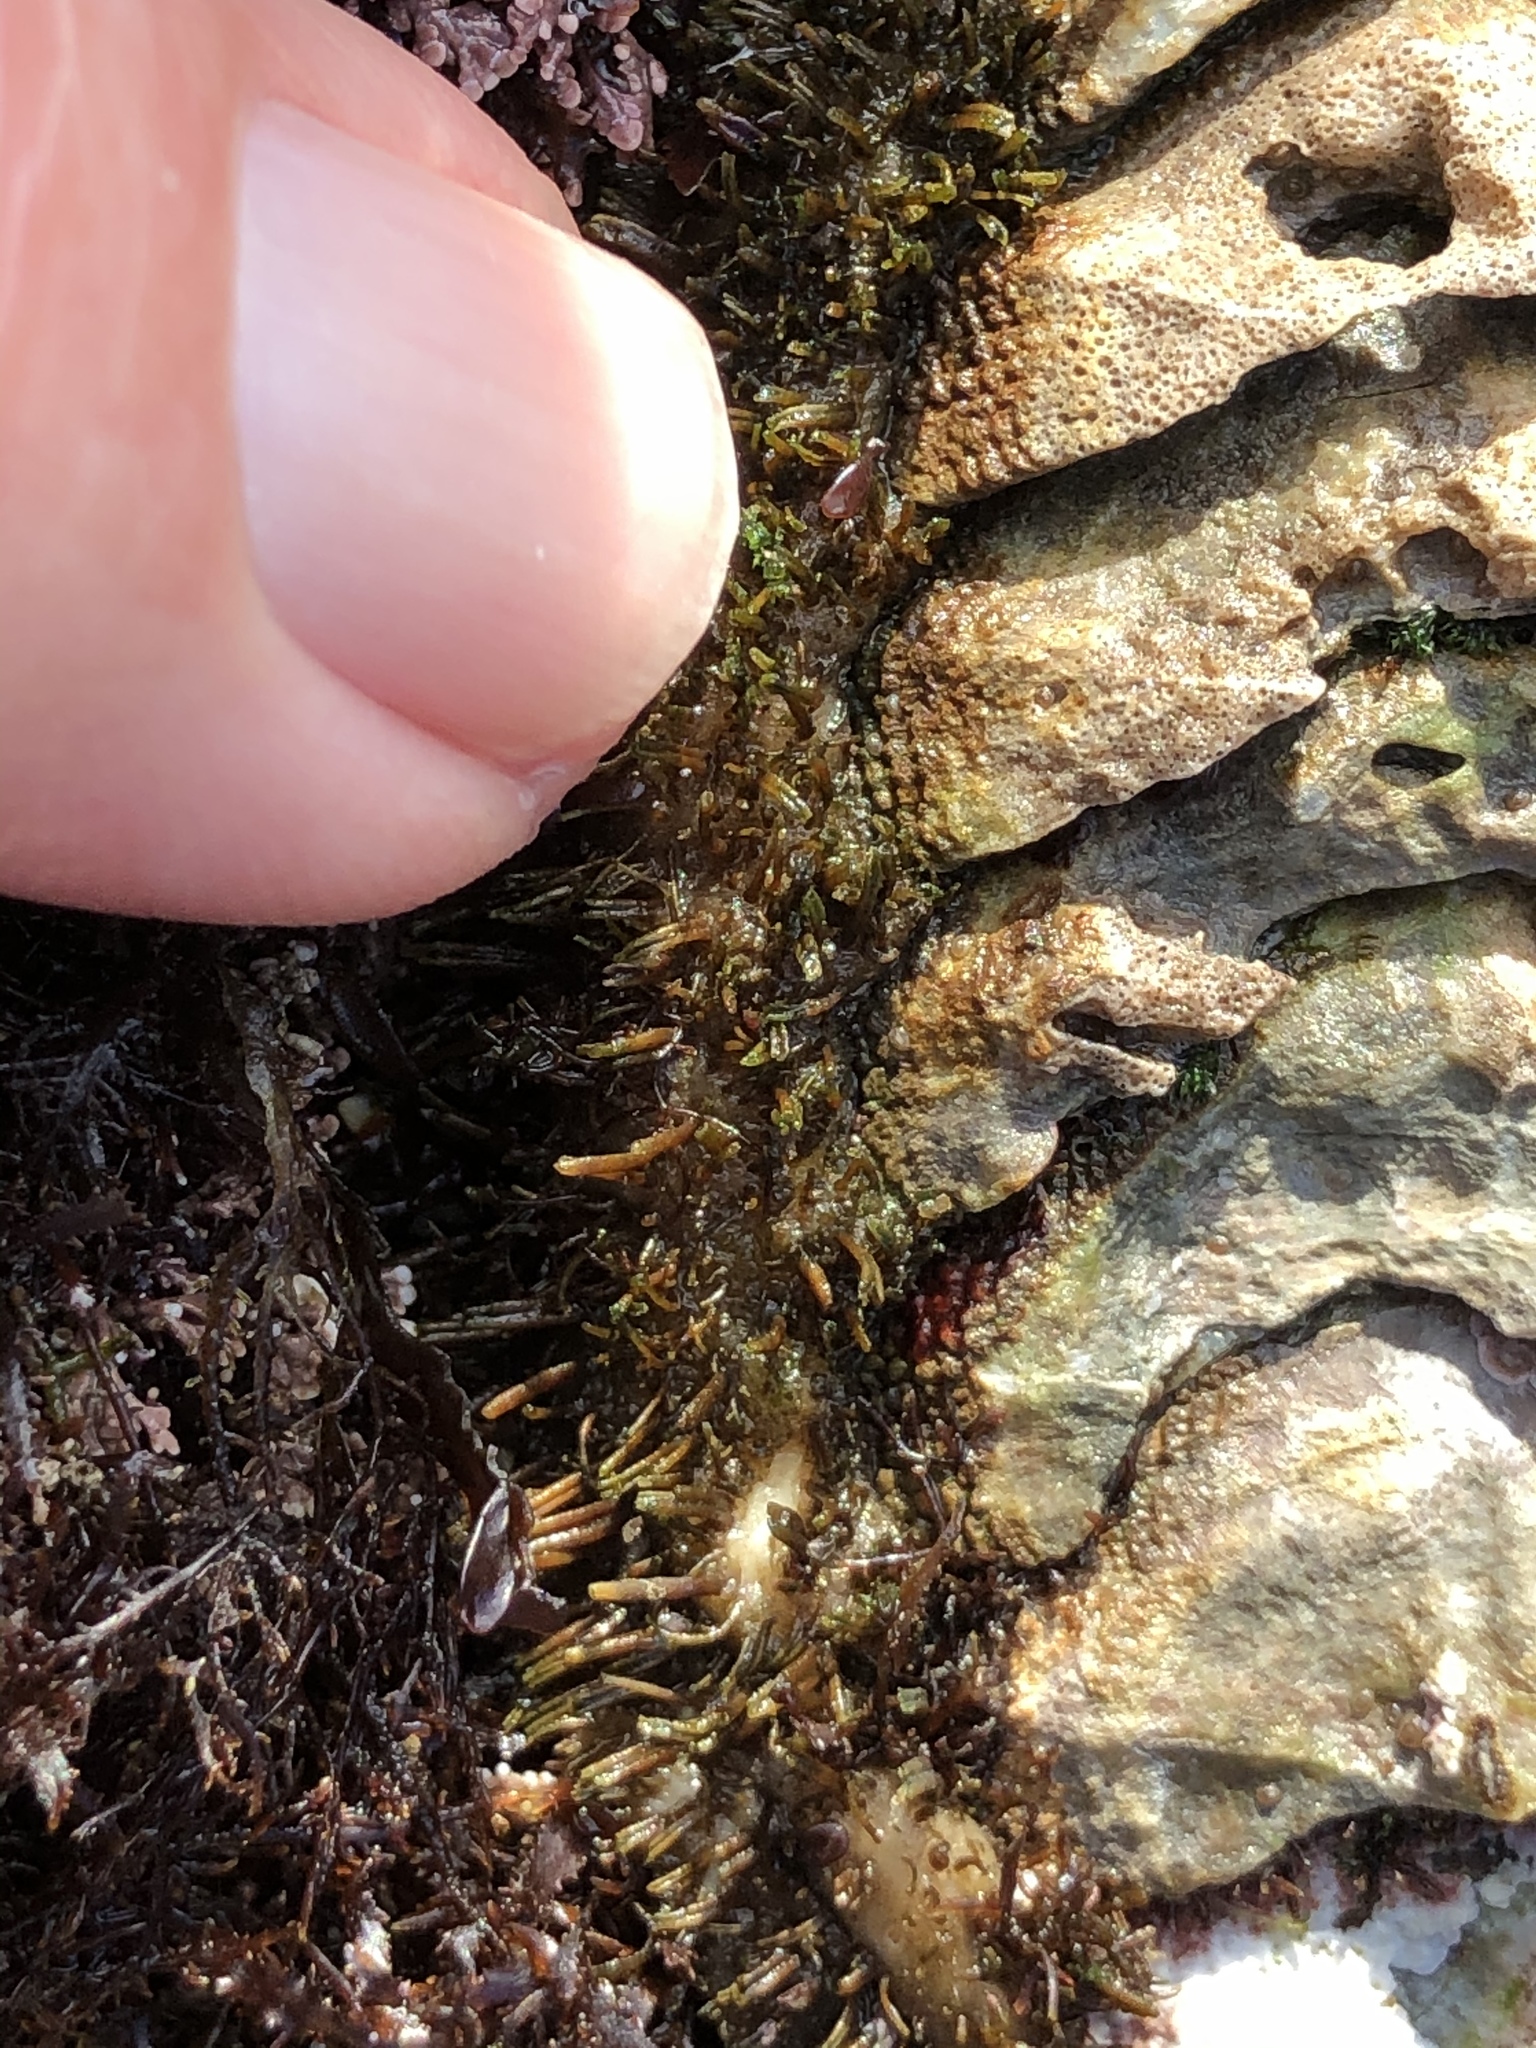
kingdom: Animalia
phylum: Mollusca
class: Polyplacophora
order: Chitonida
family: Mopaliidae
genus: Mopalia
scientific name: Mopalia muscosa
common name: Mossy chiton
